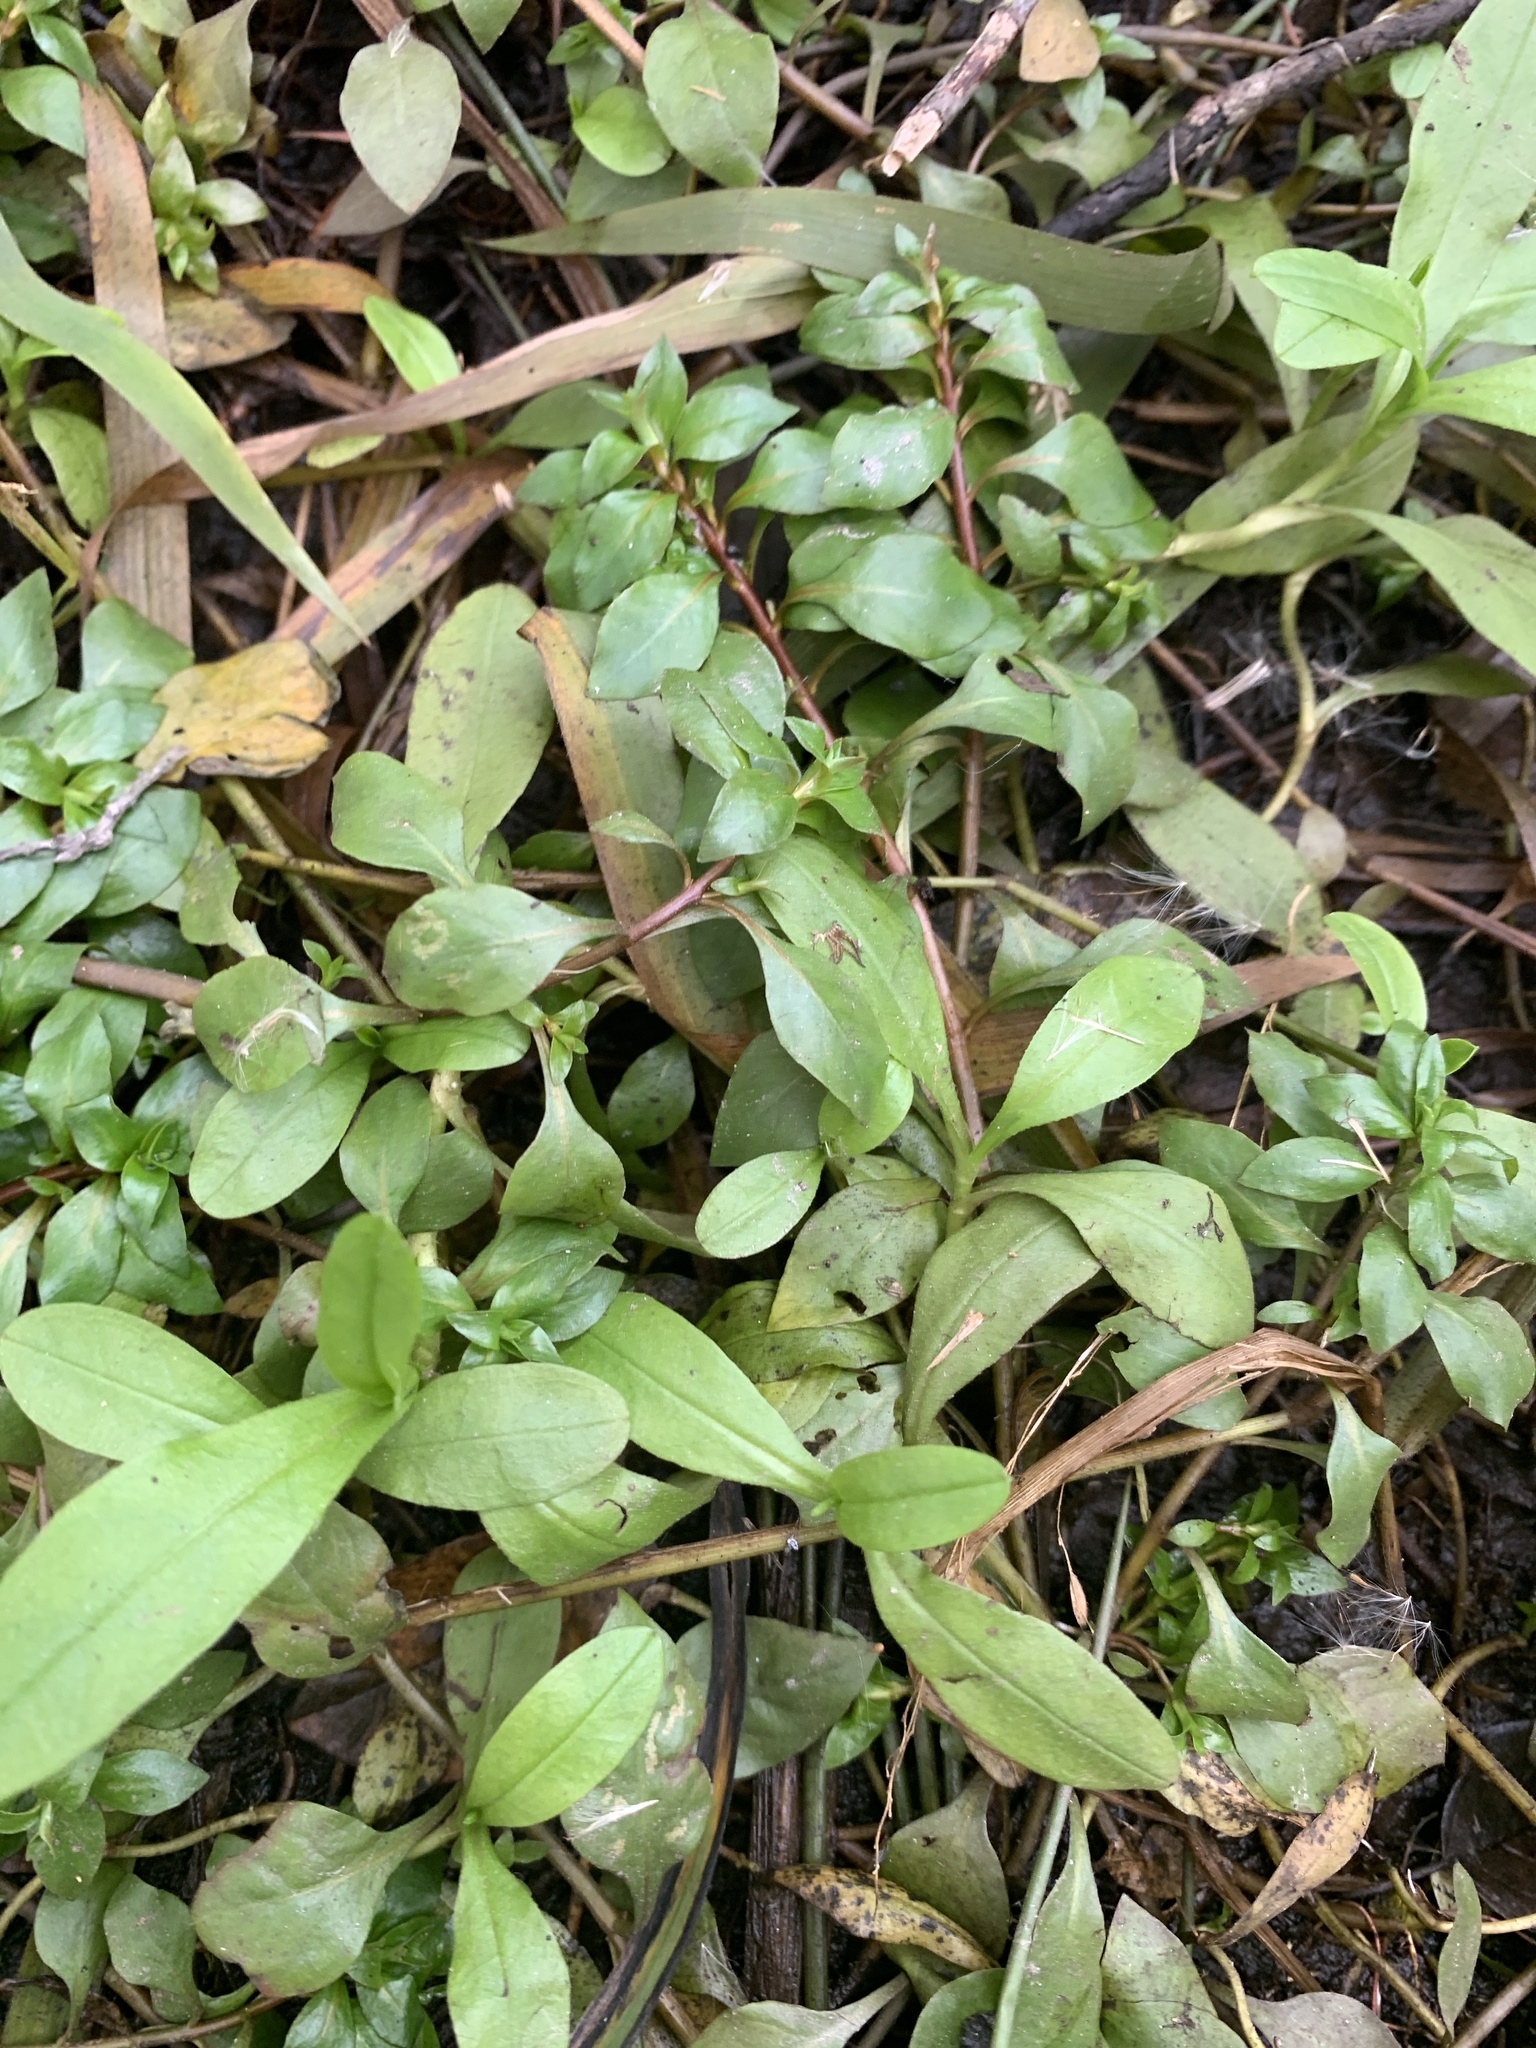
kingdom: Plantae
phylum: Tracheophyta
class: Magnoliopsida
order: Myrtales
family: Onagraceae
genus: Ludwigia
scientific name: Ludwigia palustris
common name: Hampshire-purslane
